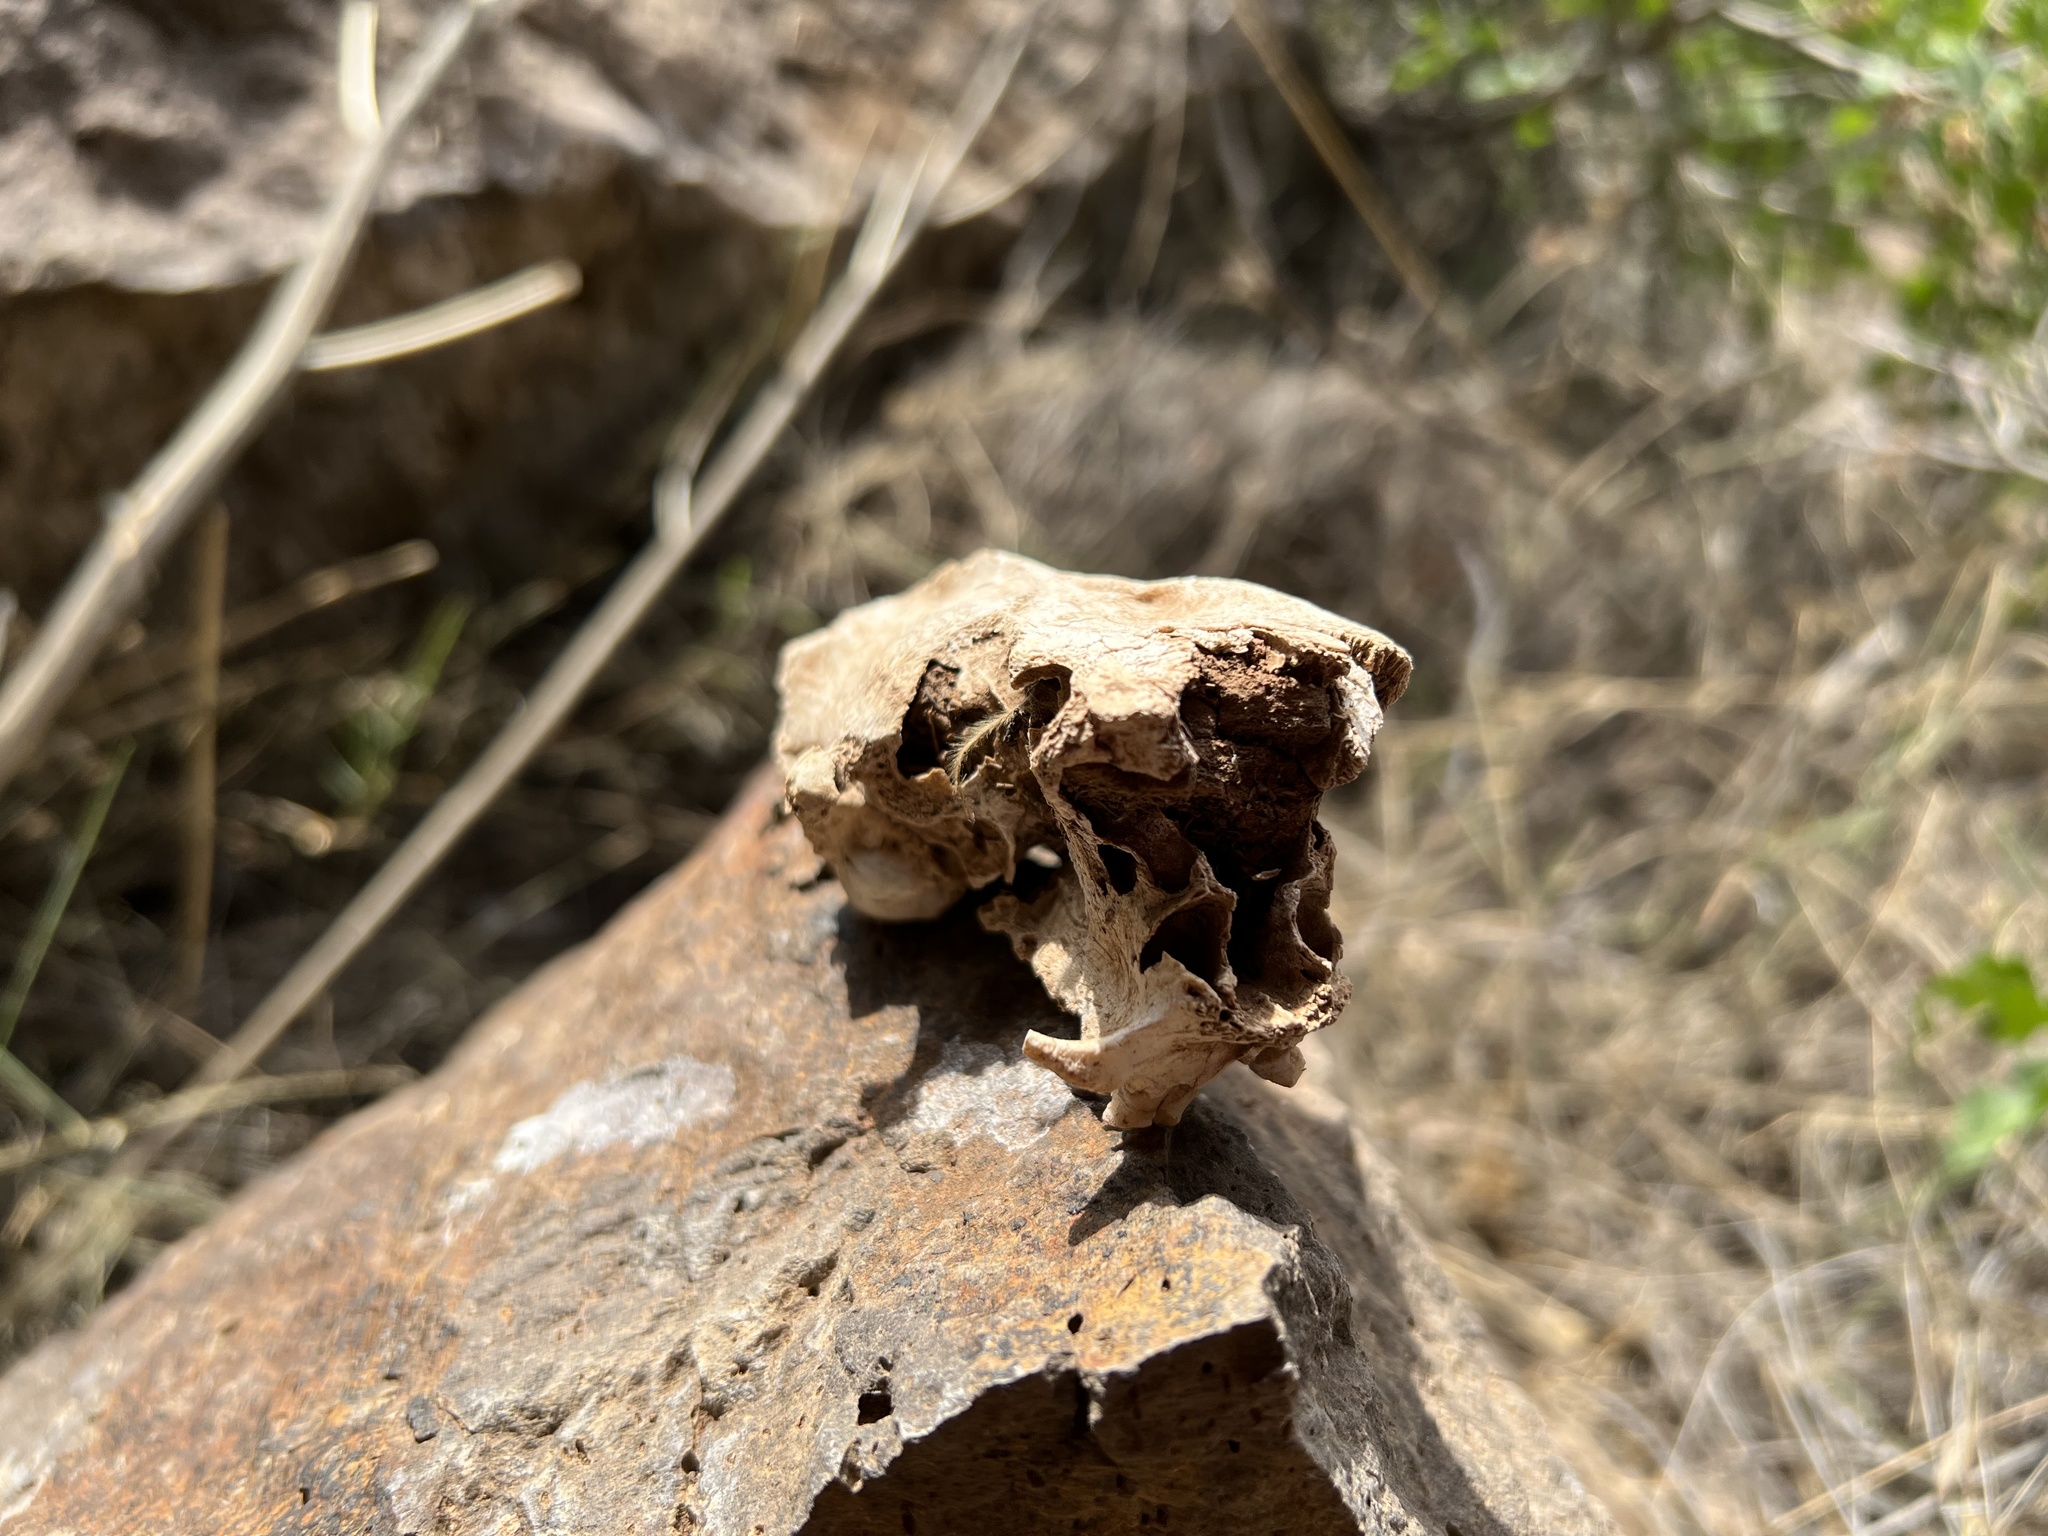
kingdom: Animalia
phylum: Chordata
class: Mammalia
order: Rodentia
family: Erethizontidae
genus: Erethizon
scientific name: Erethizon dorsatus
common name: North american porcupine
